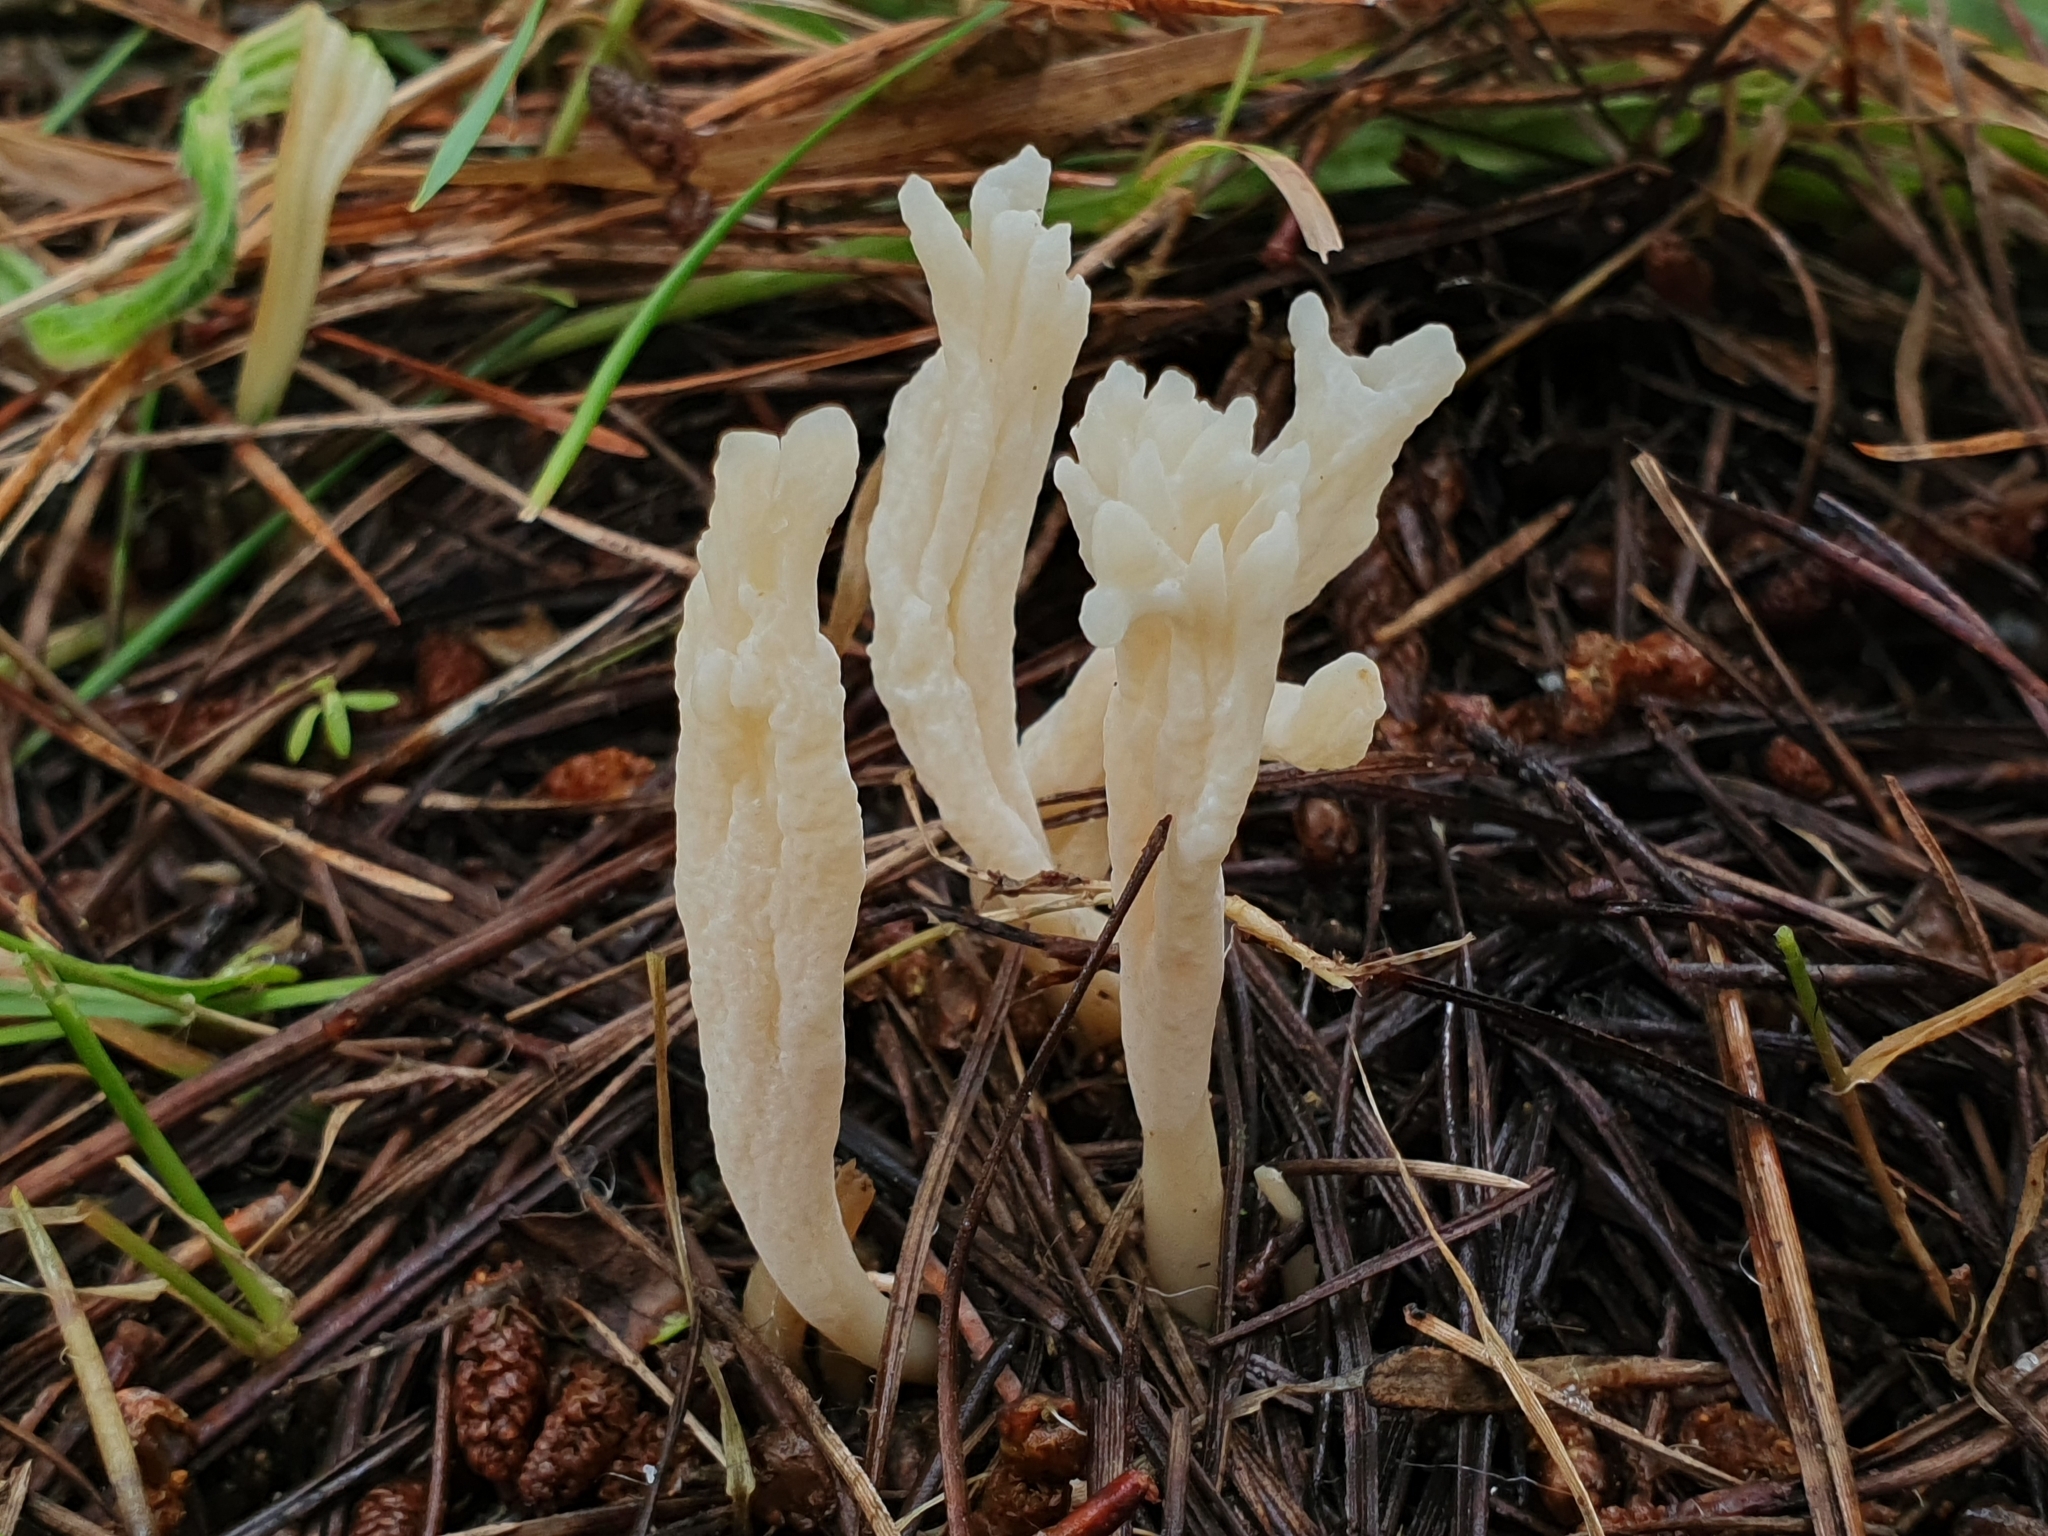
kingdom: Fungi
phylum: Basidiomycota
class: Agaricomycetes
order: Cantharellales
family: Hydnaceae
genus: Clavulina
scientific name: Clavulina rugosa
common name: Wrinkled club
